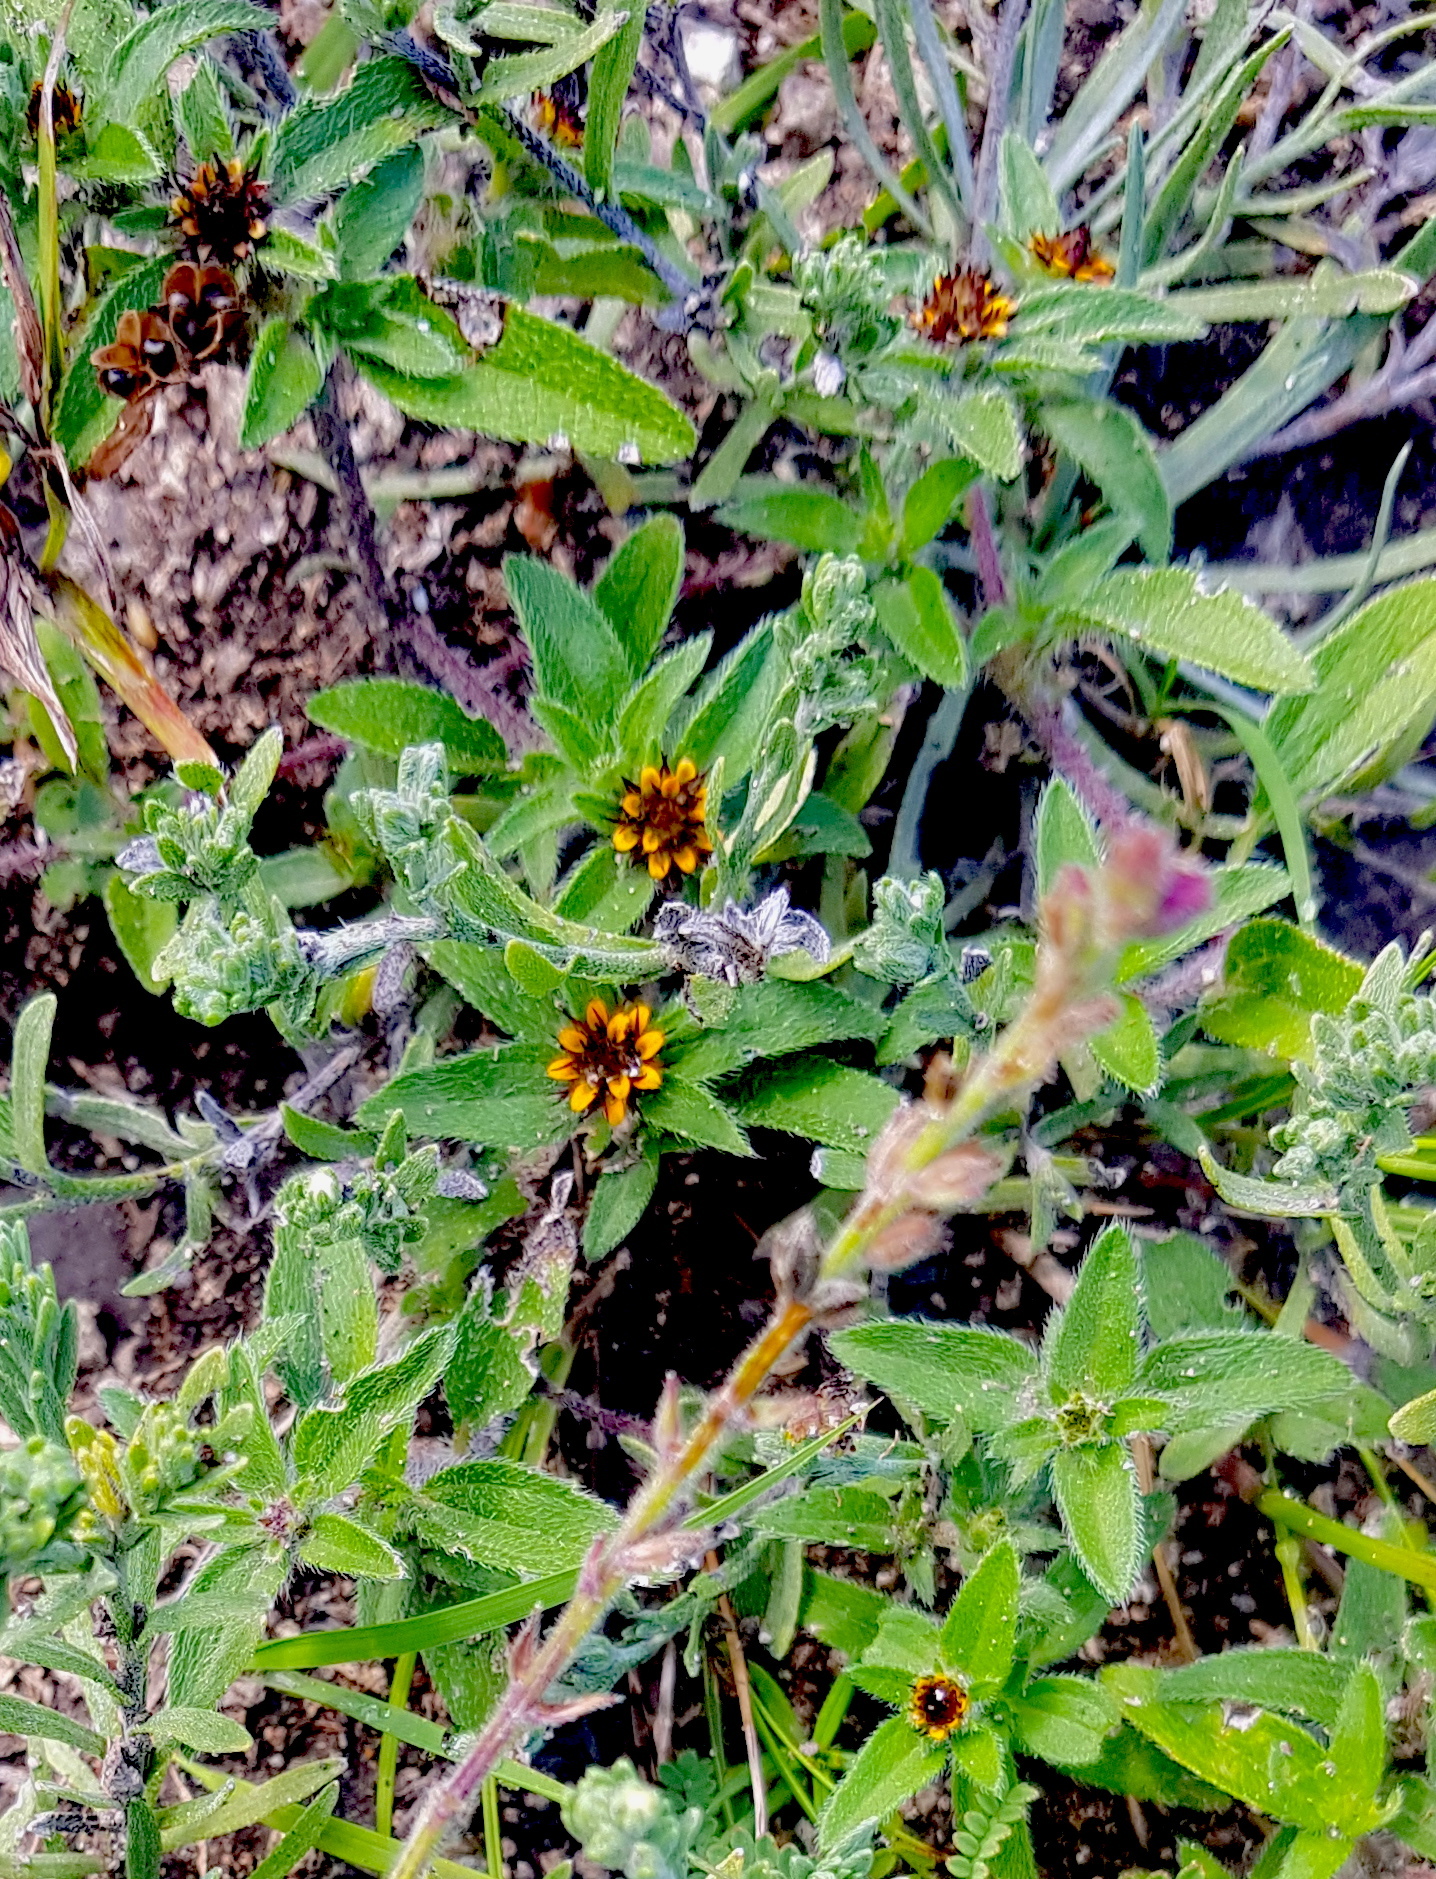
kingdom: Plantae
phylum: Tracheophyta
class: Magnoliopsida
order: Asterales
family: Asteraceae
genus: Sanvitalia
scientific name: Sanvitalia angustifolia
